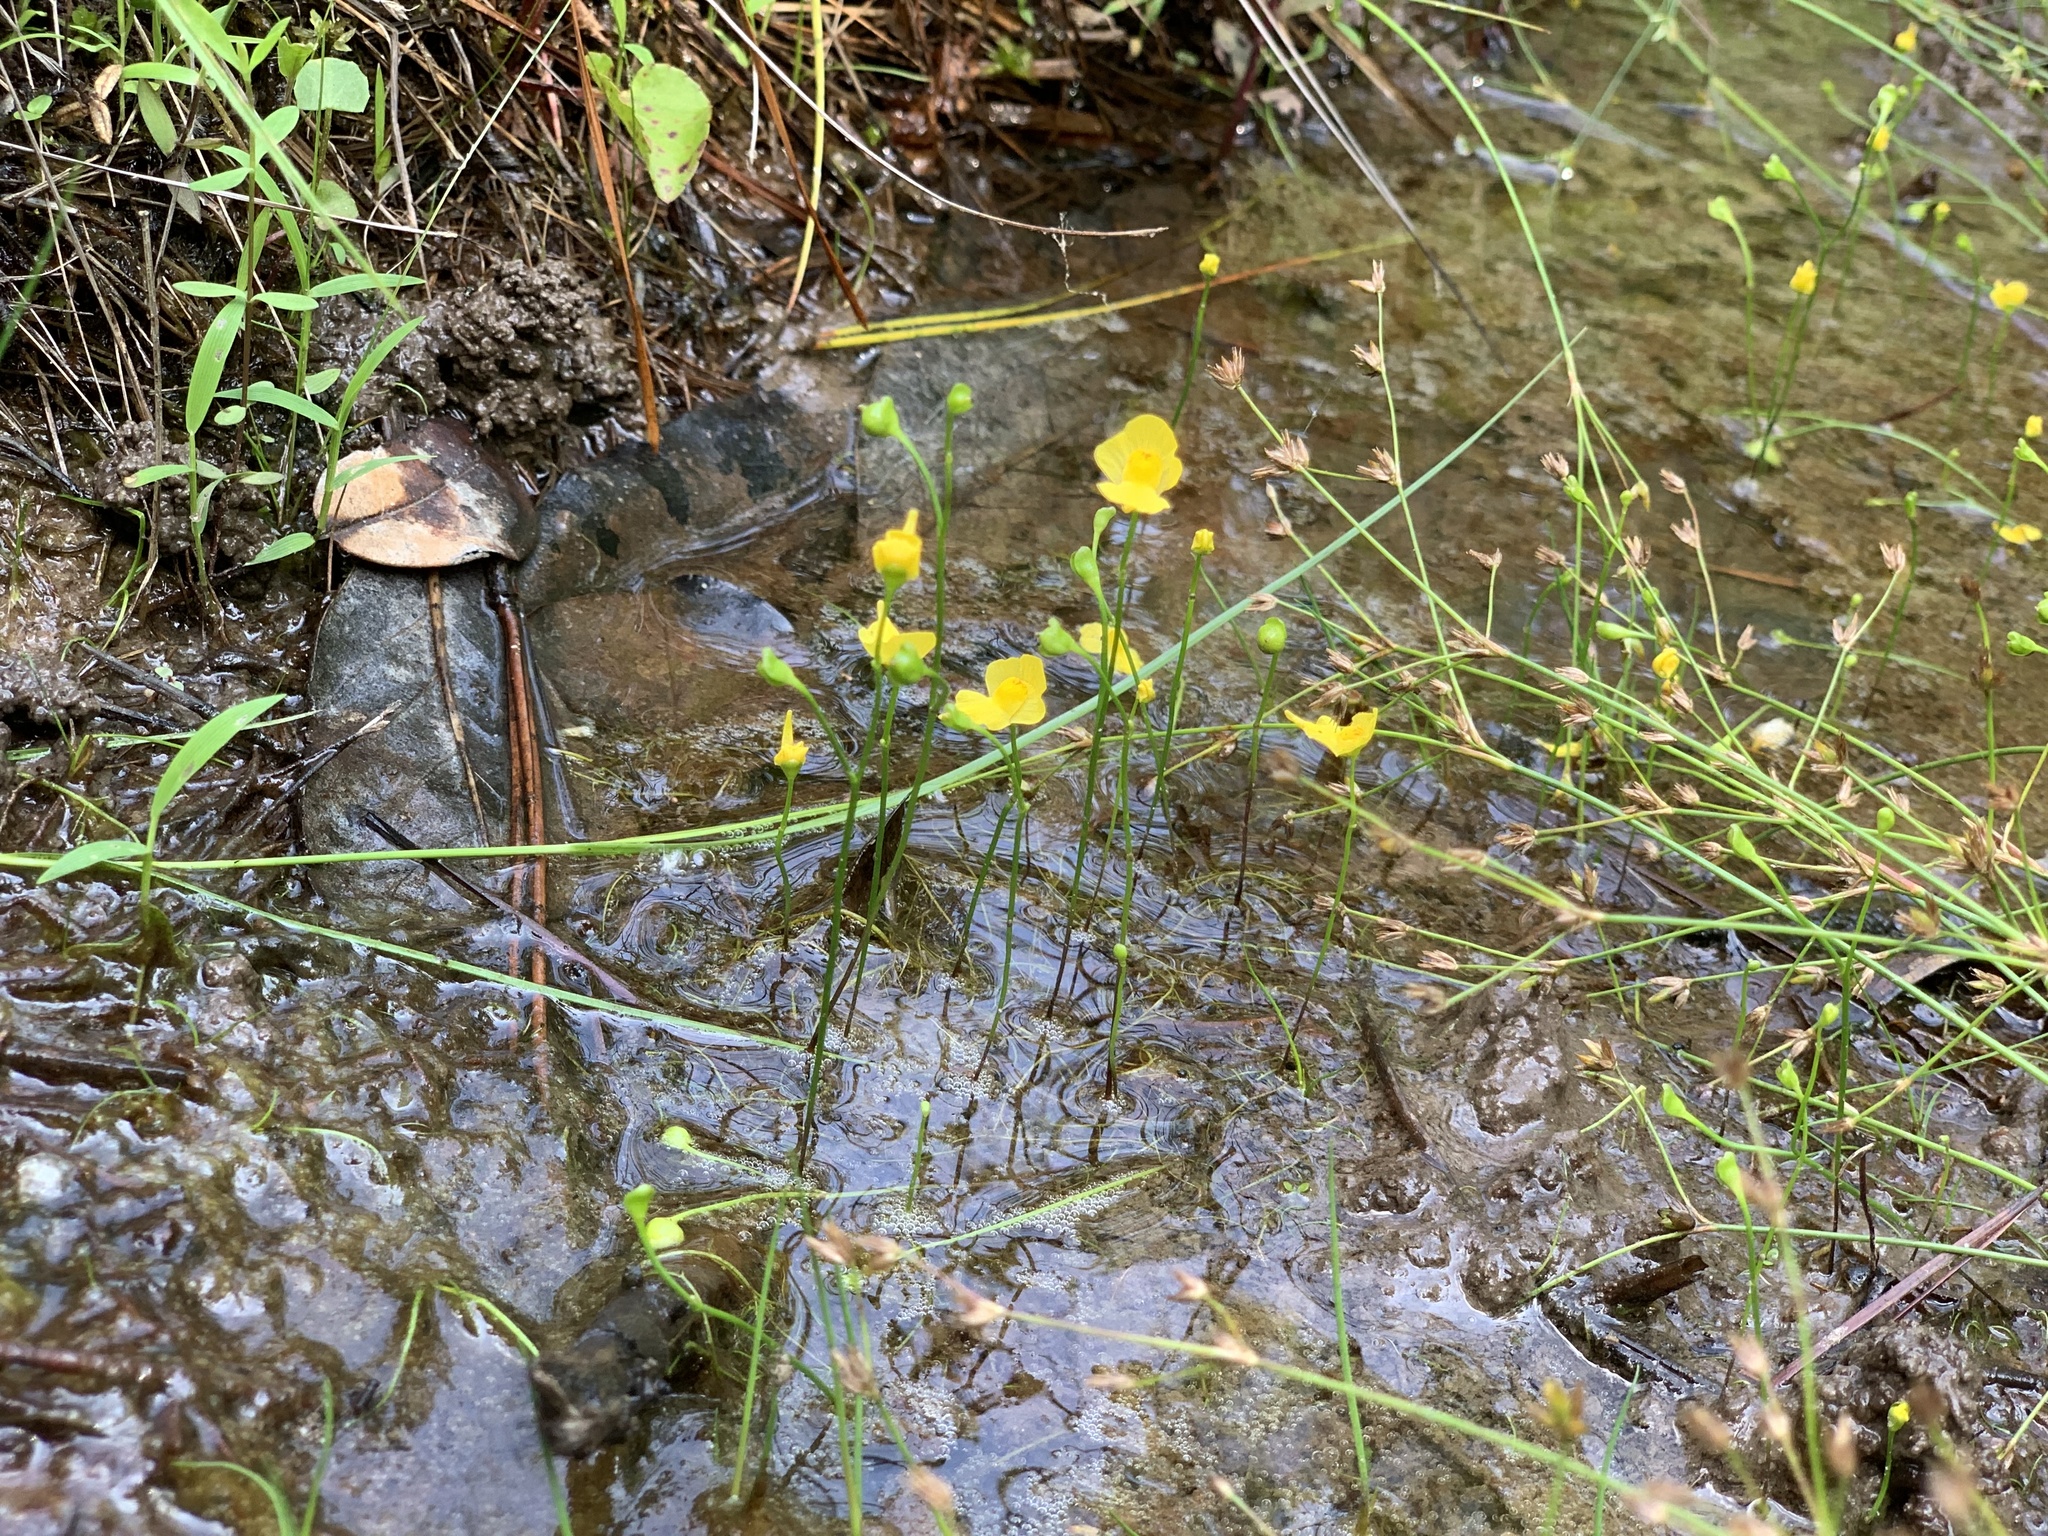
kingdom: Plantae
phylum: Tracheophyta
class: Magnoliopsida
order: Lamiales
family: Lentibulariaceae
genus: Utricularia
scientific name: Utricularia gibba
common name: Humped bladderwort
